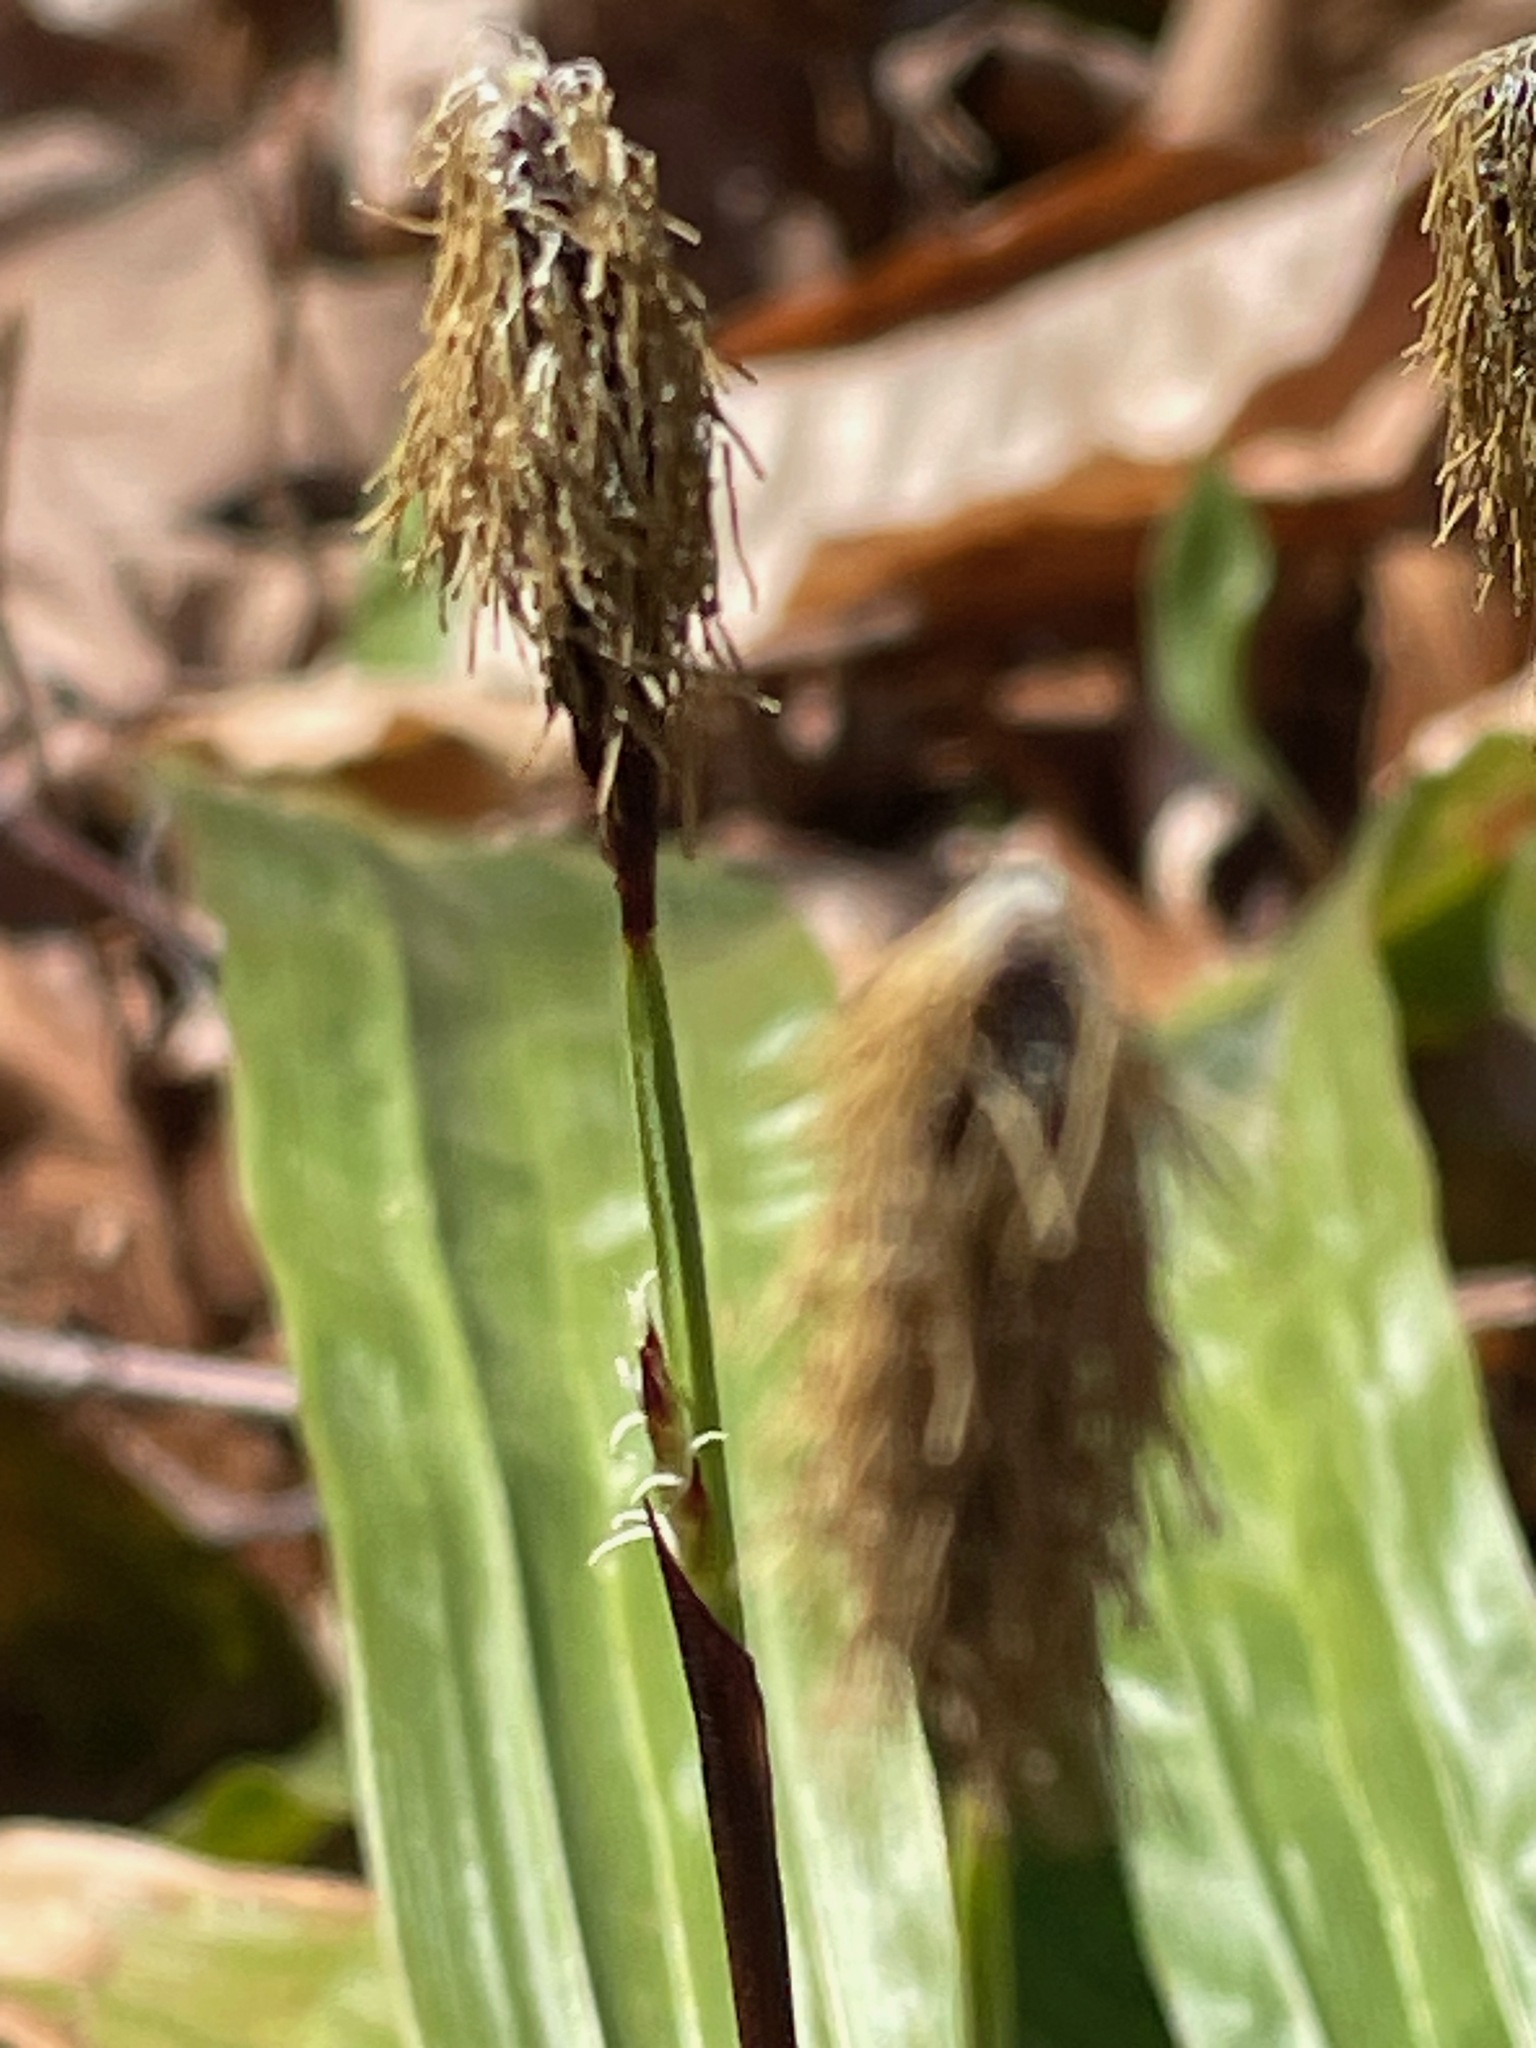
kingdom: Plantae
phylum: Tracheophyta
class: Liliopsida
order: Poales
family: Cyperaceae
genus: Carex
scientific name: Carex plantaginea
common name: Plantain-leaved sedge
